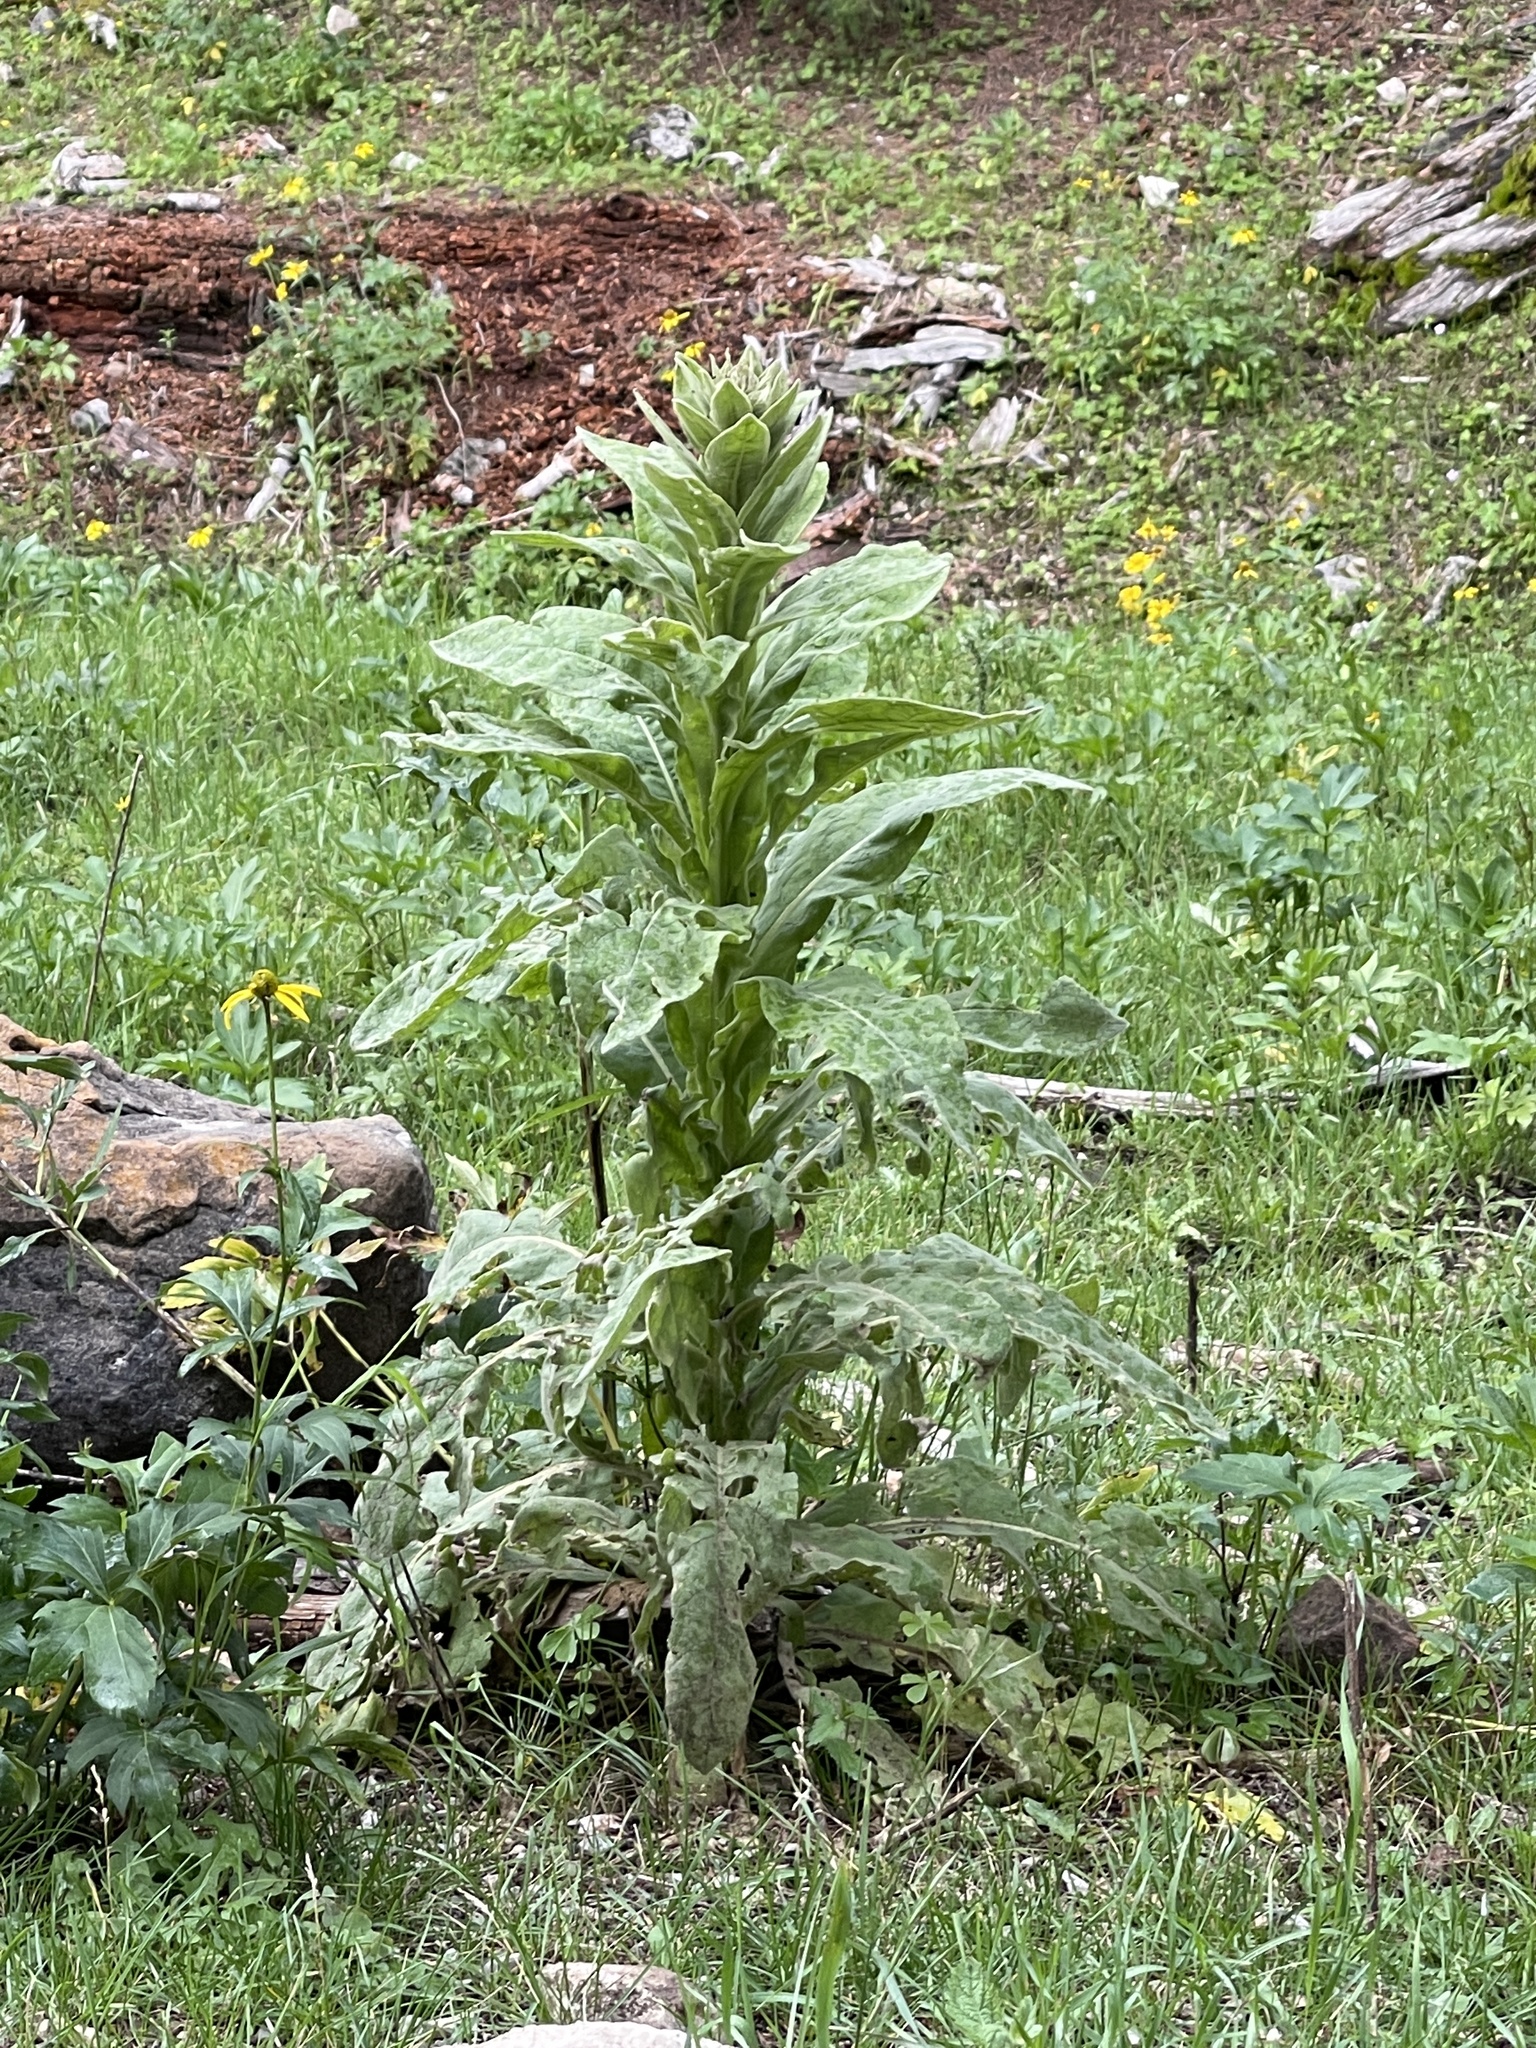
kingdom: Plantae
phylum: Tracheophyta
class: Magnoliopsida
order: Lamiales
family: Scrophulariaceae
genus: Verbascum
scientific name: Verbascum thapsus
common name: Common mullein
